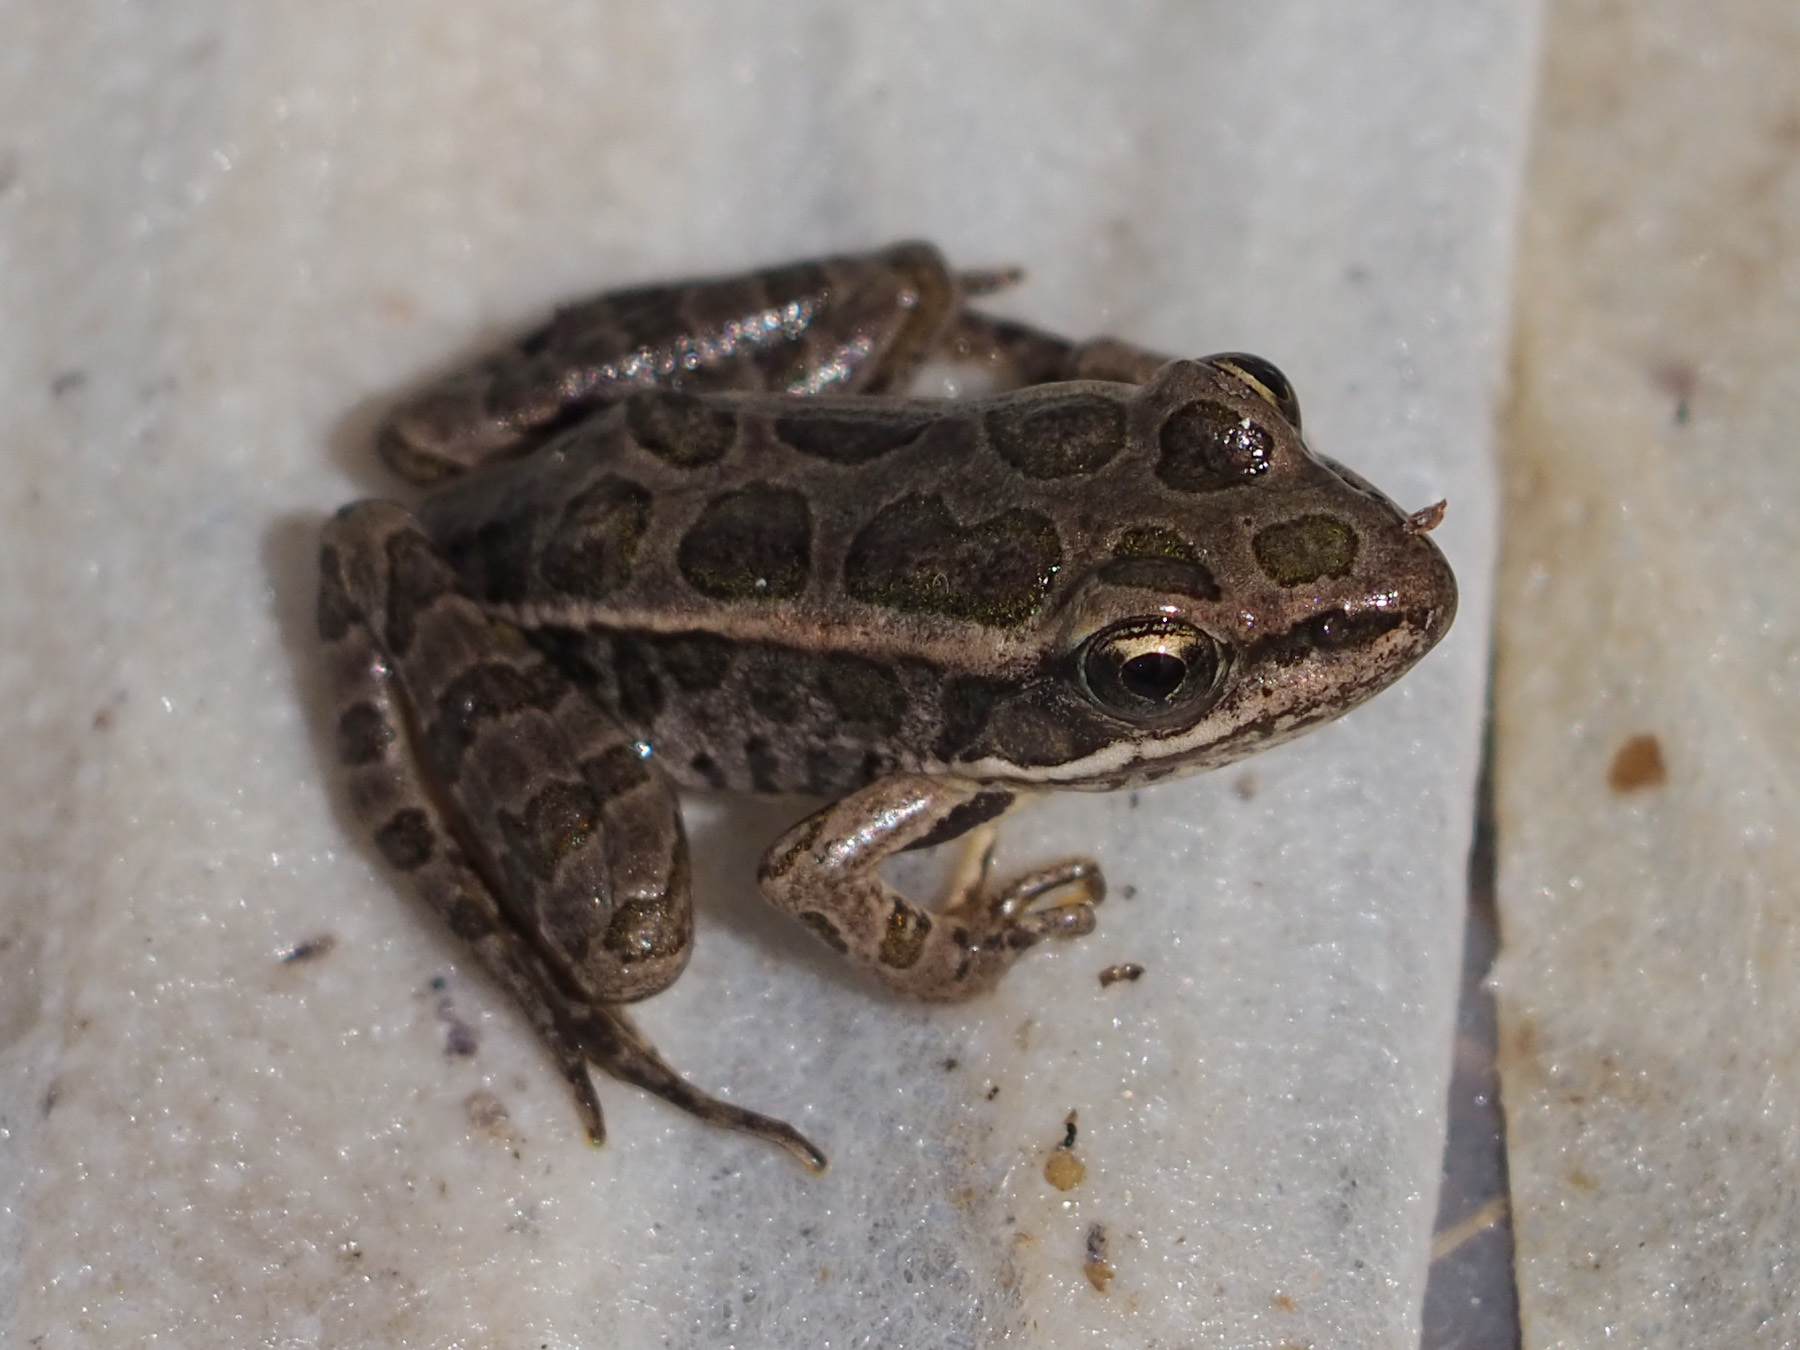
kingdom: Animalia
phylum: Chordata
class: Amphibia
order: Anura
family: Ranidae
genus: Lithobates
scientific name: Lithobates palustris
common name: Pickerel frog
